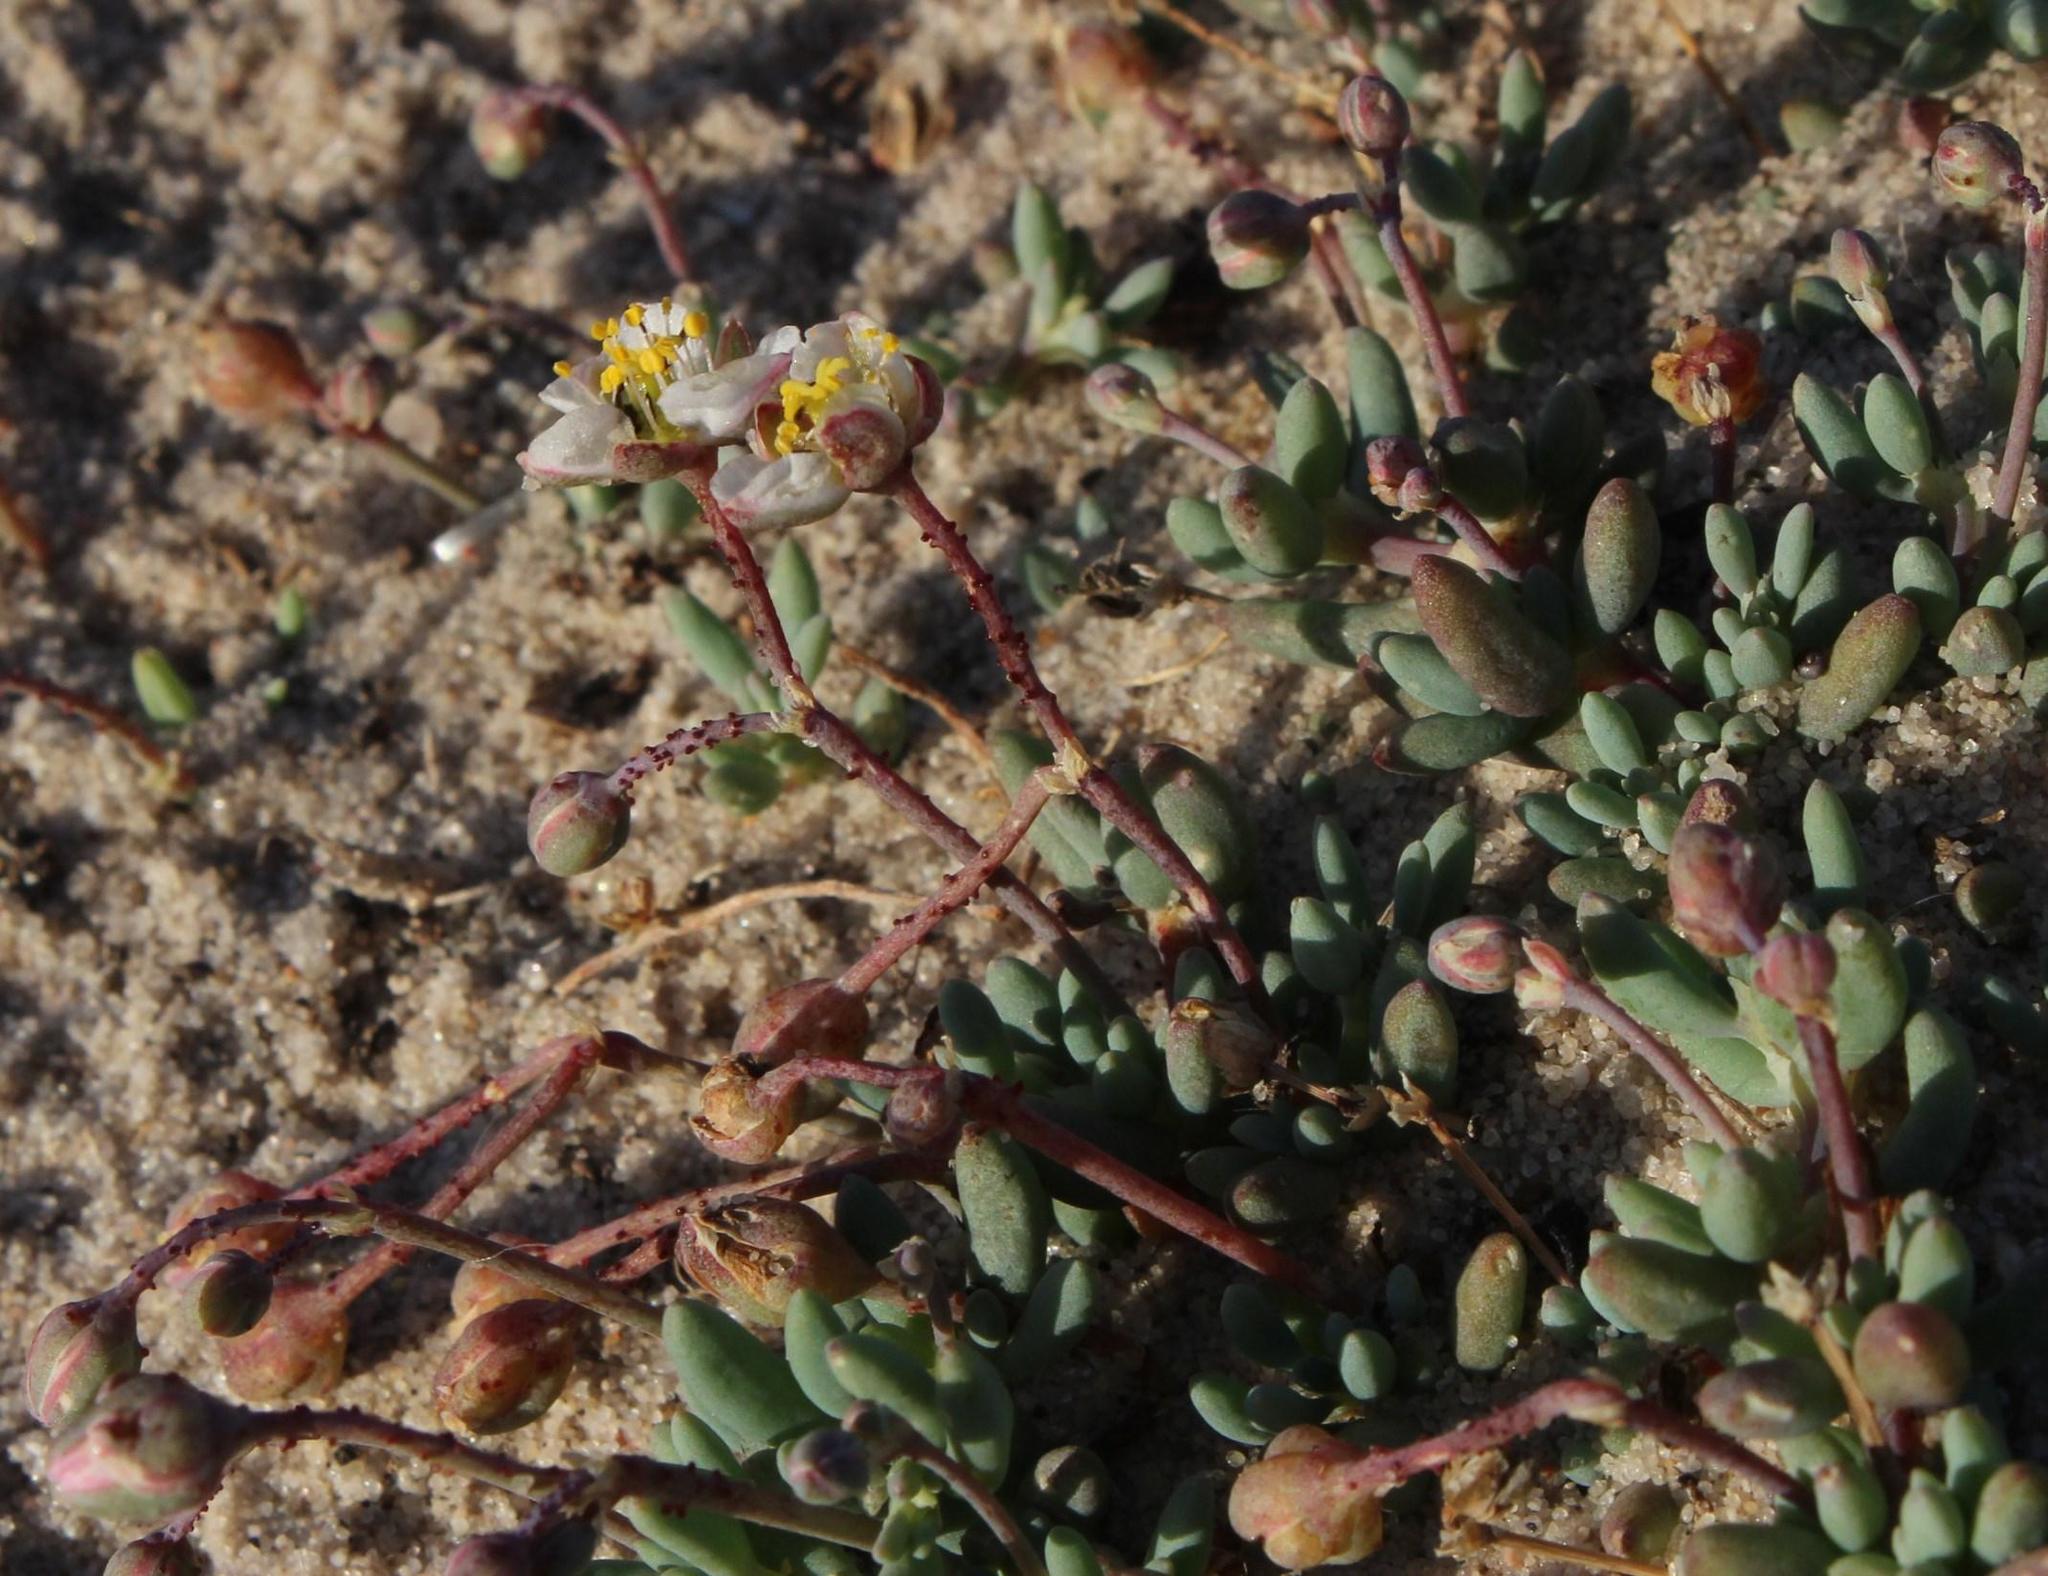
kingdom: Plantae
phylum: Tracheophyta
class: Magnoliopsida
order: Caryophyllales
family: Kewaceae
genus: Kewa
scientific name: Kewa angrae-pequenae
